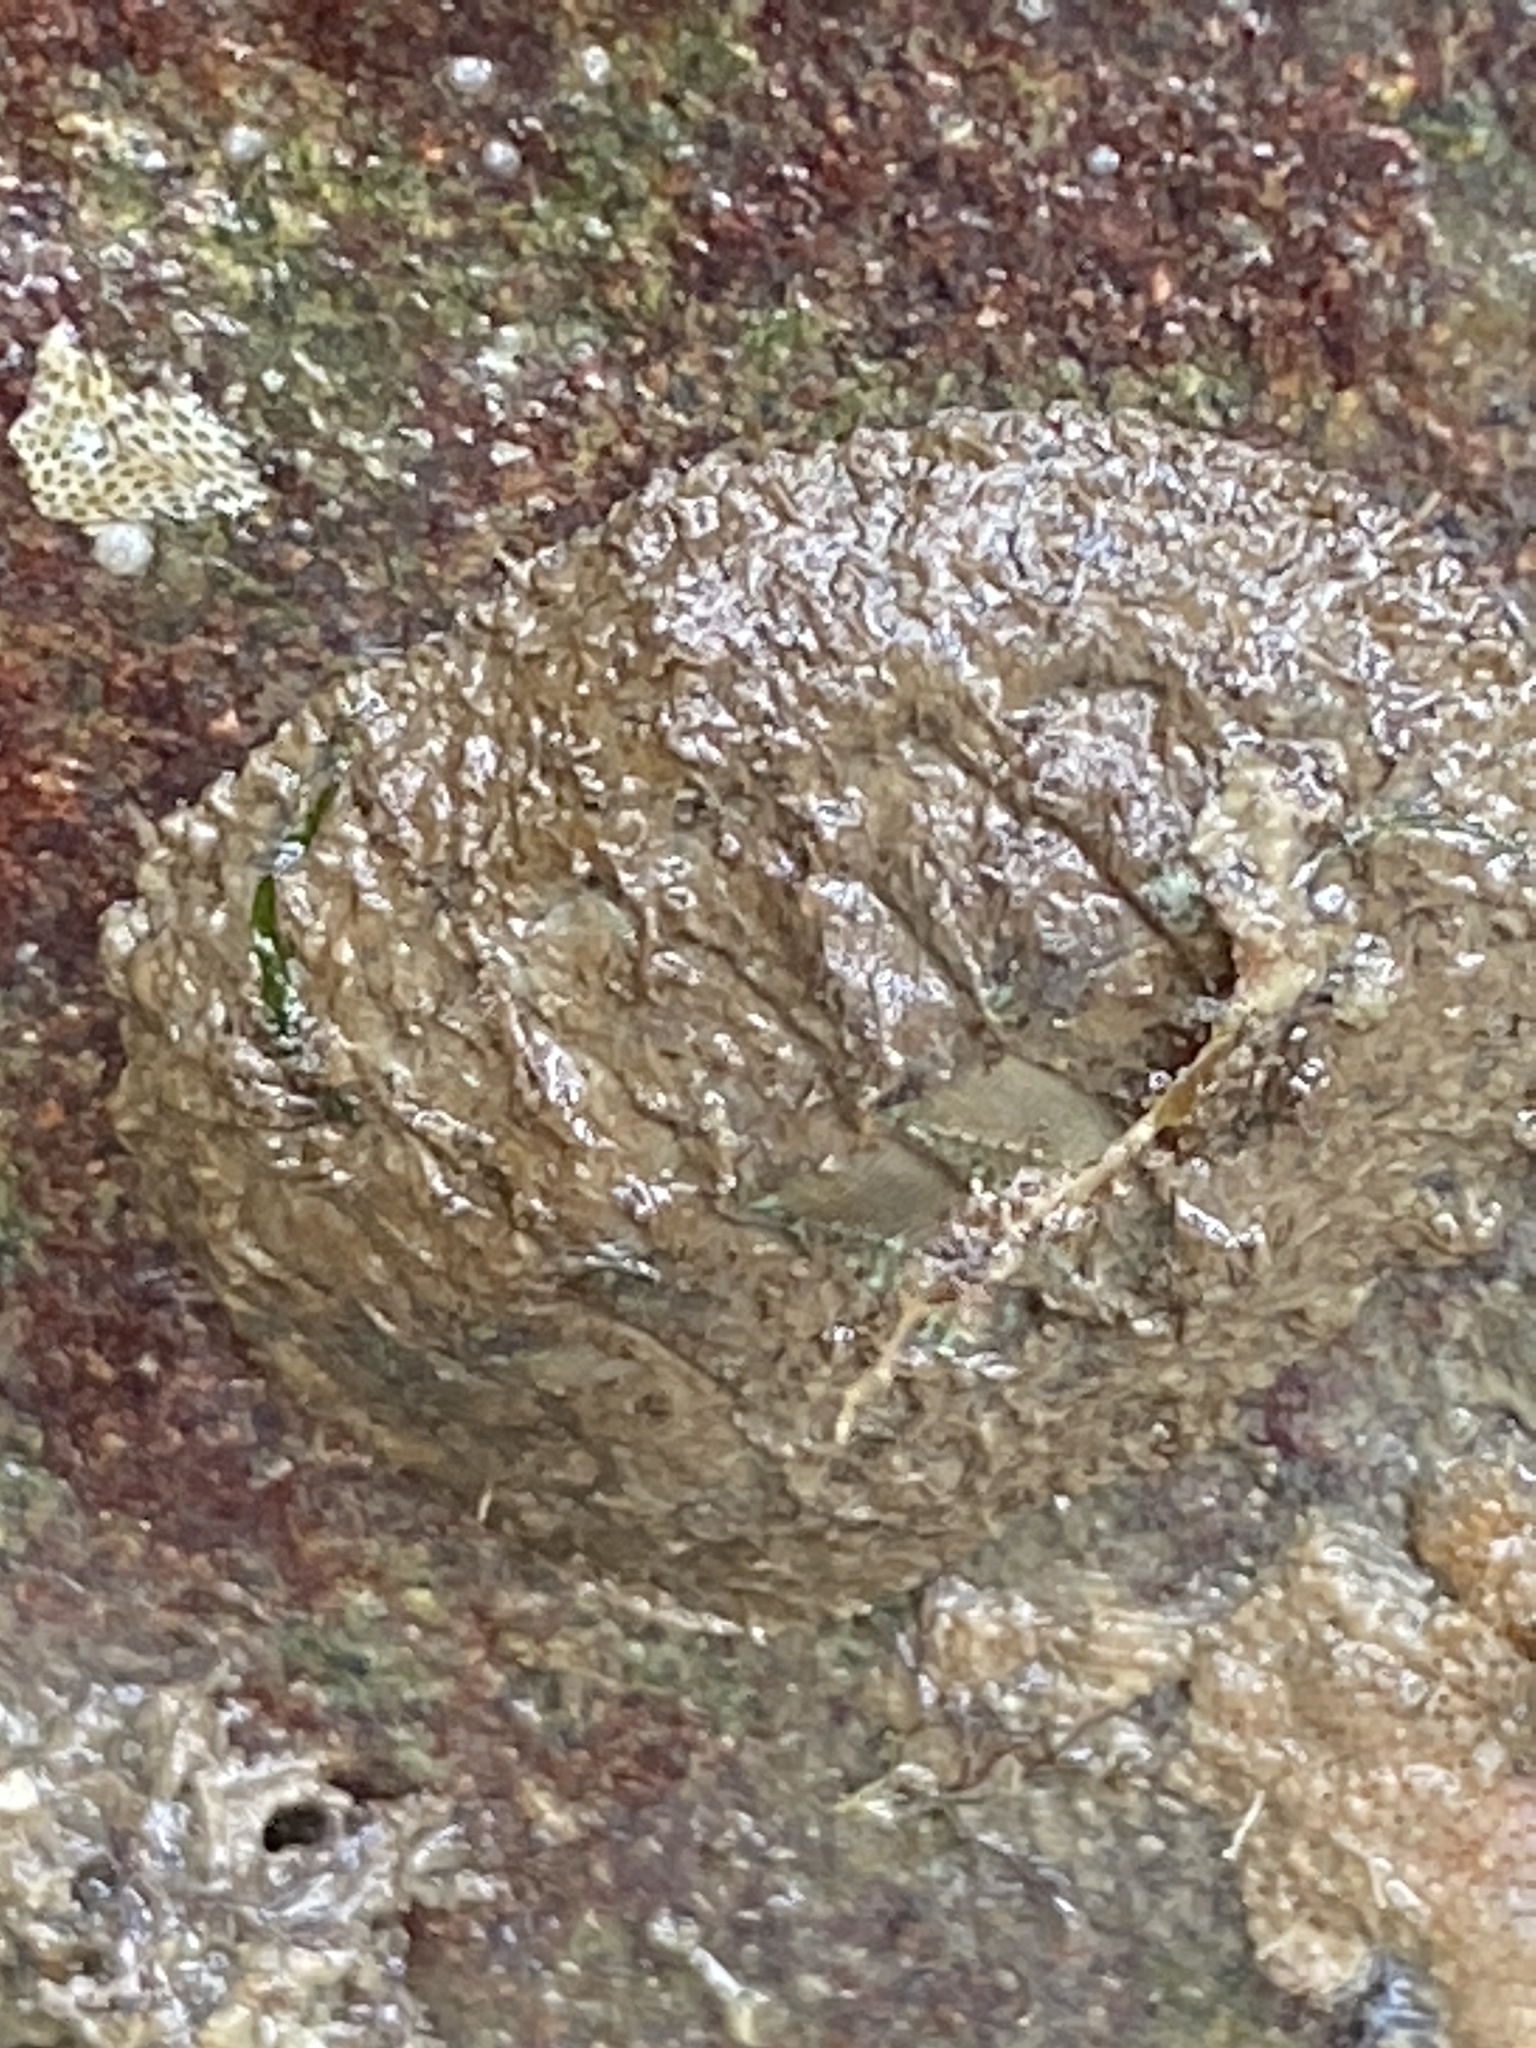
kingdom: Animalia
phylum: Mollusca
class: Polyplacophora
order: Chitonida
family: Mopaliidae
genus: Mopalia
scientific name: Mopalia hindsii
